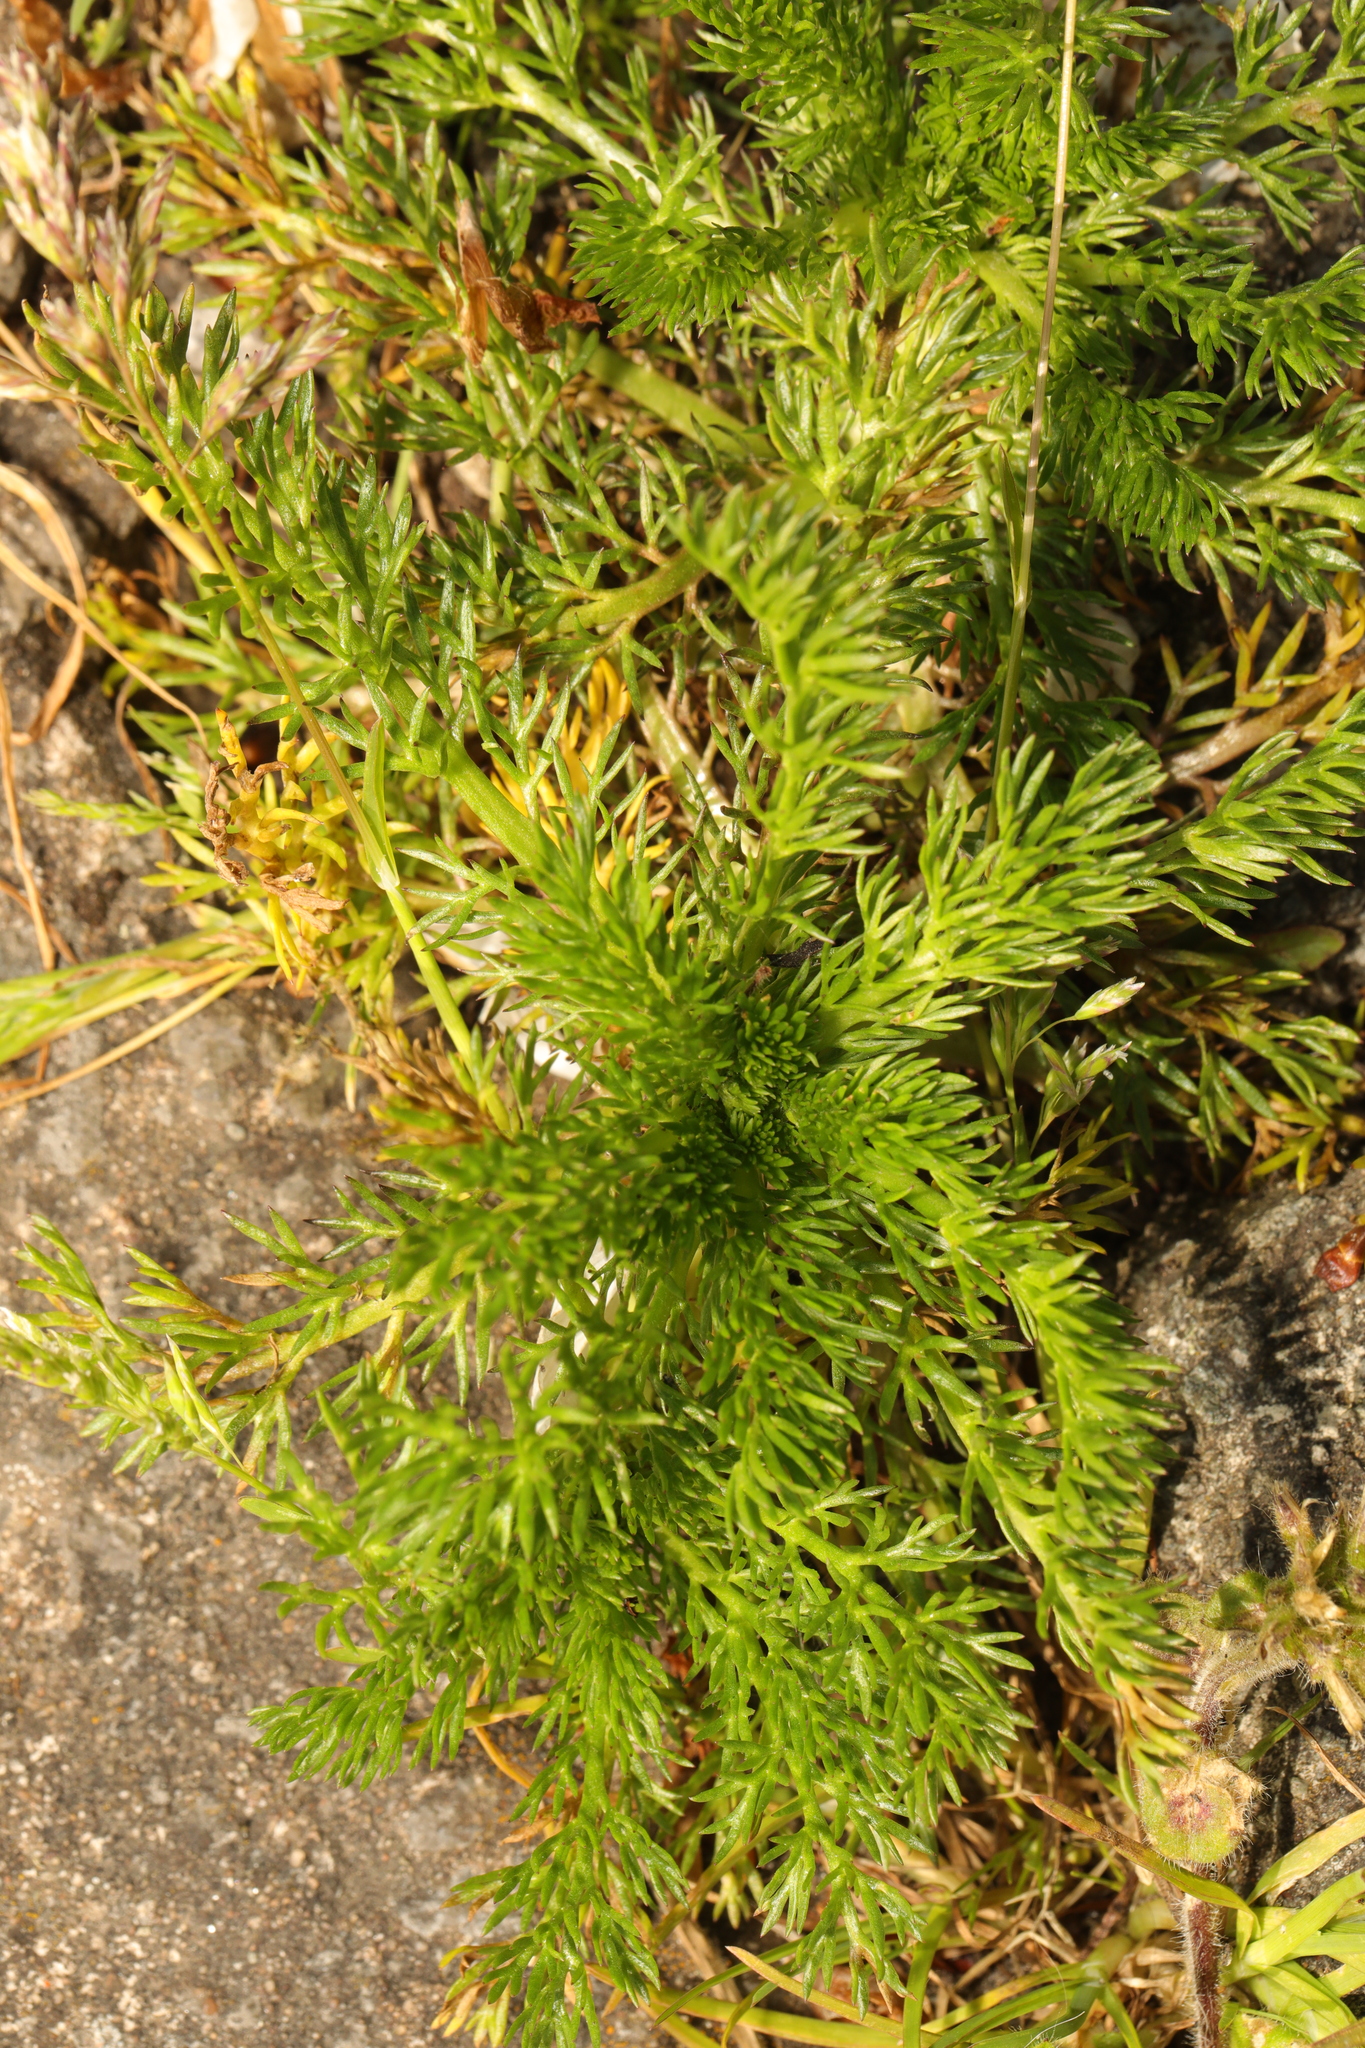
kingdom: Plantae
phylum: Tracheophyta
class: Magnoliopsida
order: Asterales
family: Asteraceae
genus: Matricaria
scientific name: Matricaria discoidea
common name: Disc mayweed
